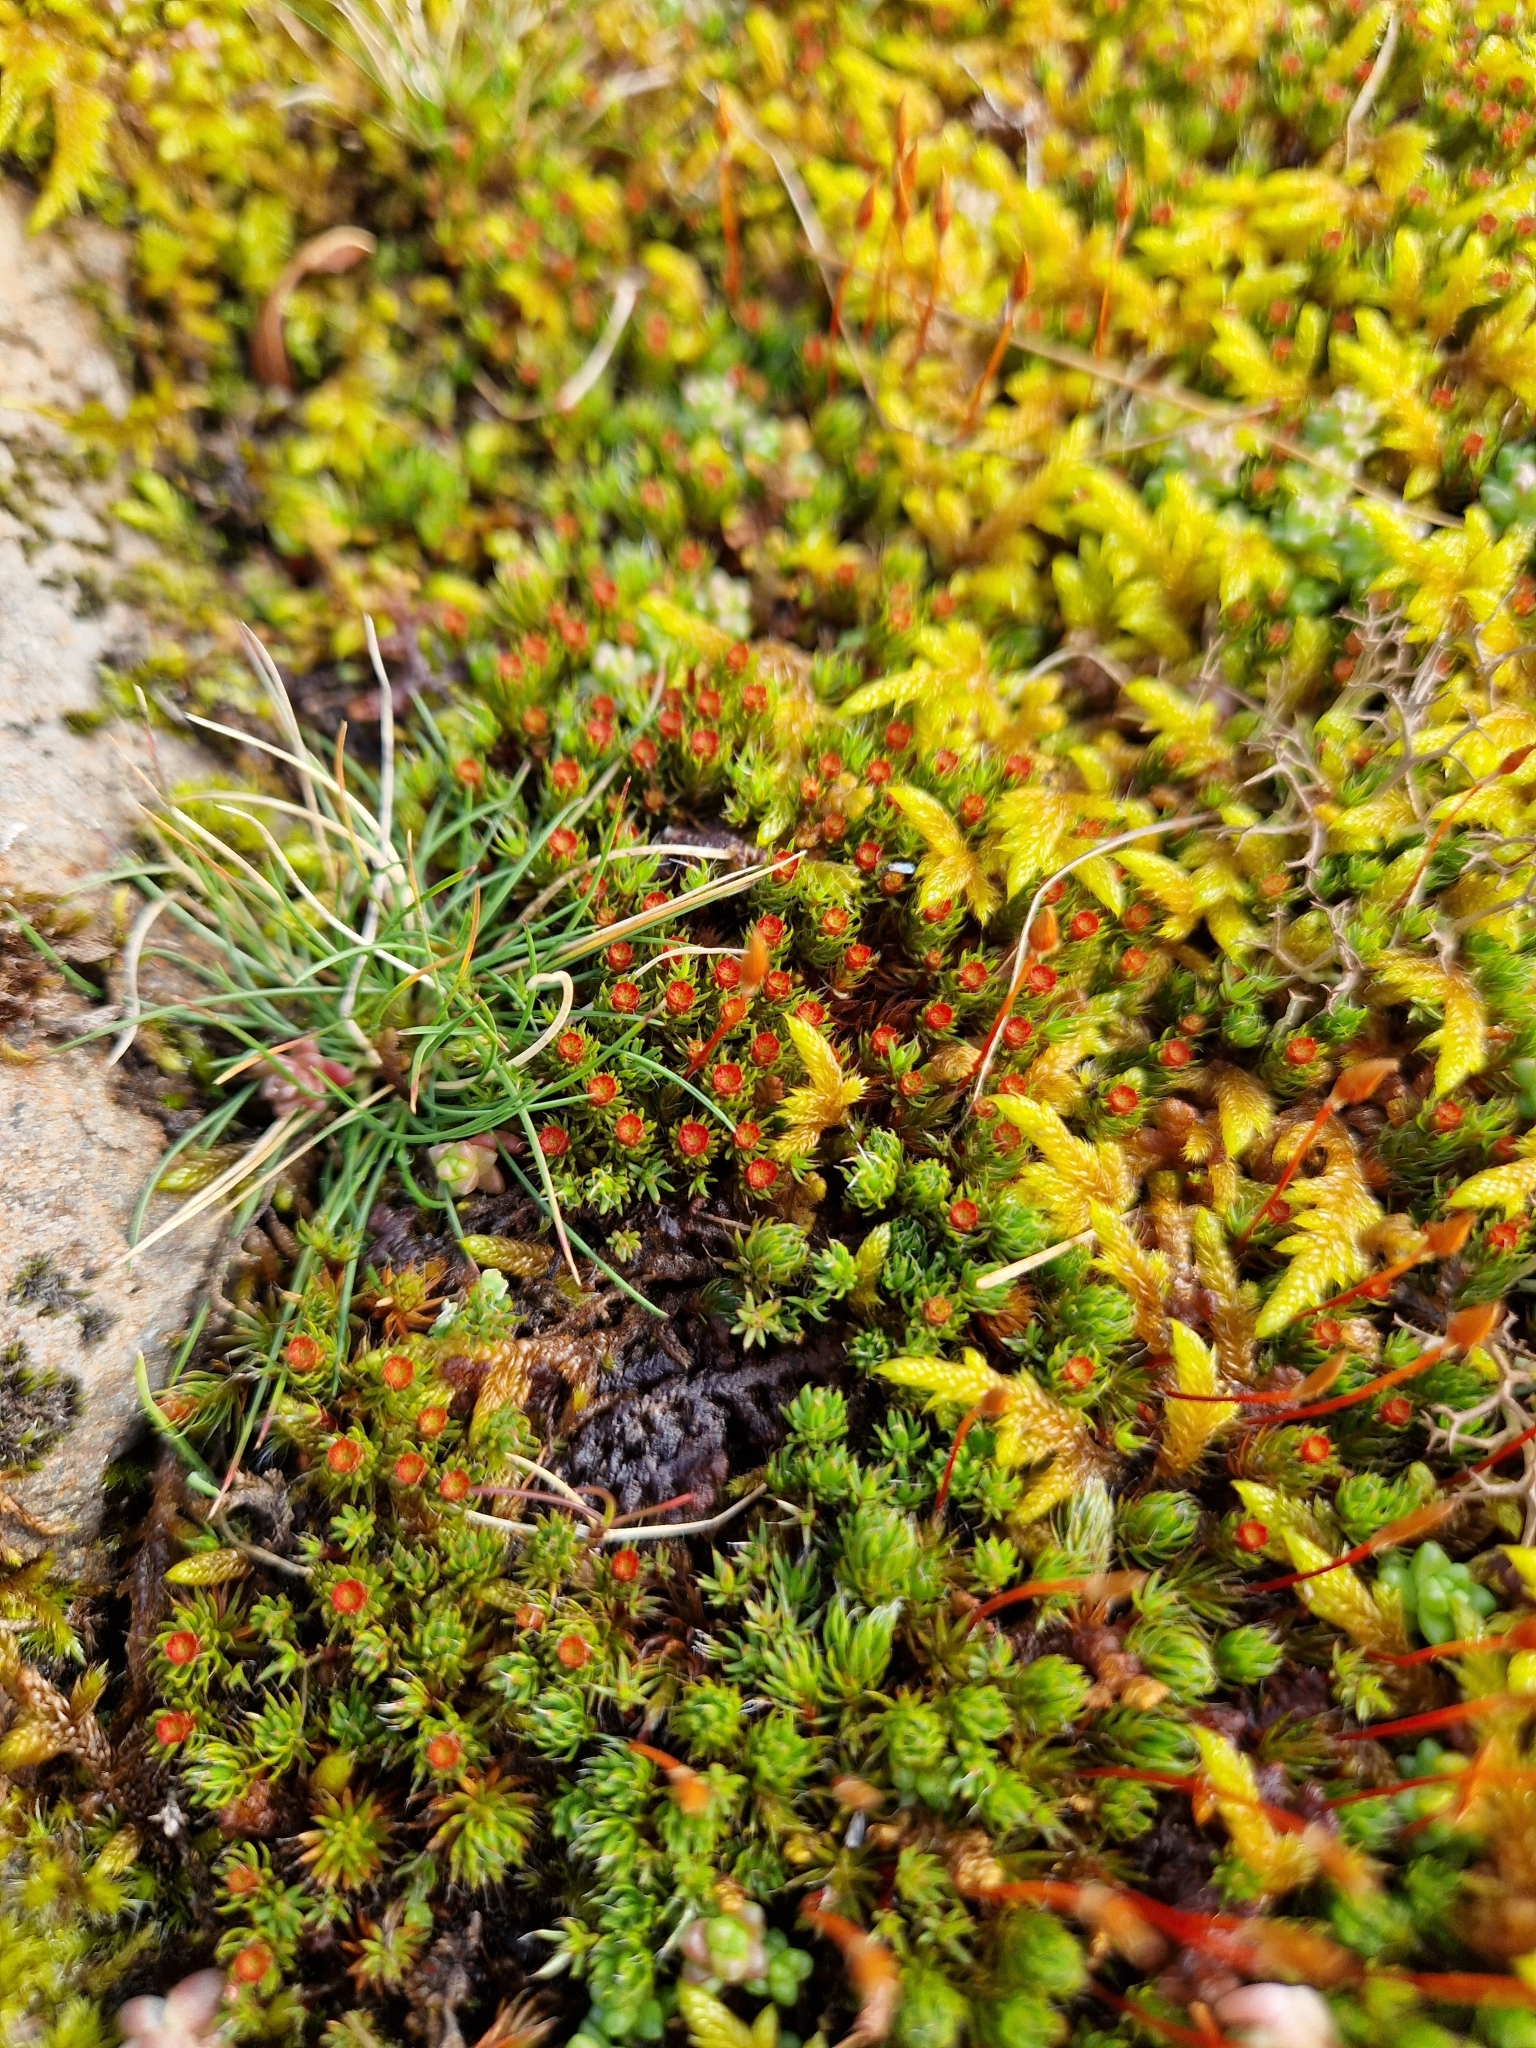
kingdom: Plantae
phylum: Bryophyta
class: Polytrichopsida
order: Polytrichales
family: Polytrichaceae
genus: Polytrichum
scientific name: Polytrichum piliferum
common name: Bristly haircap
